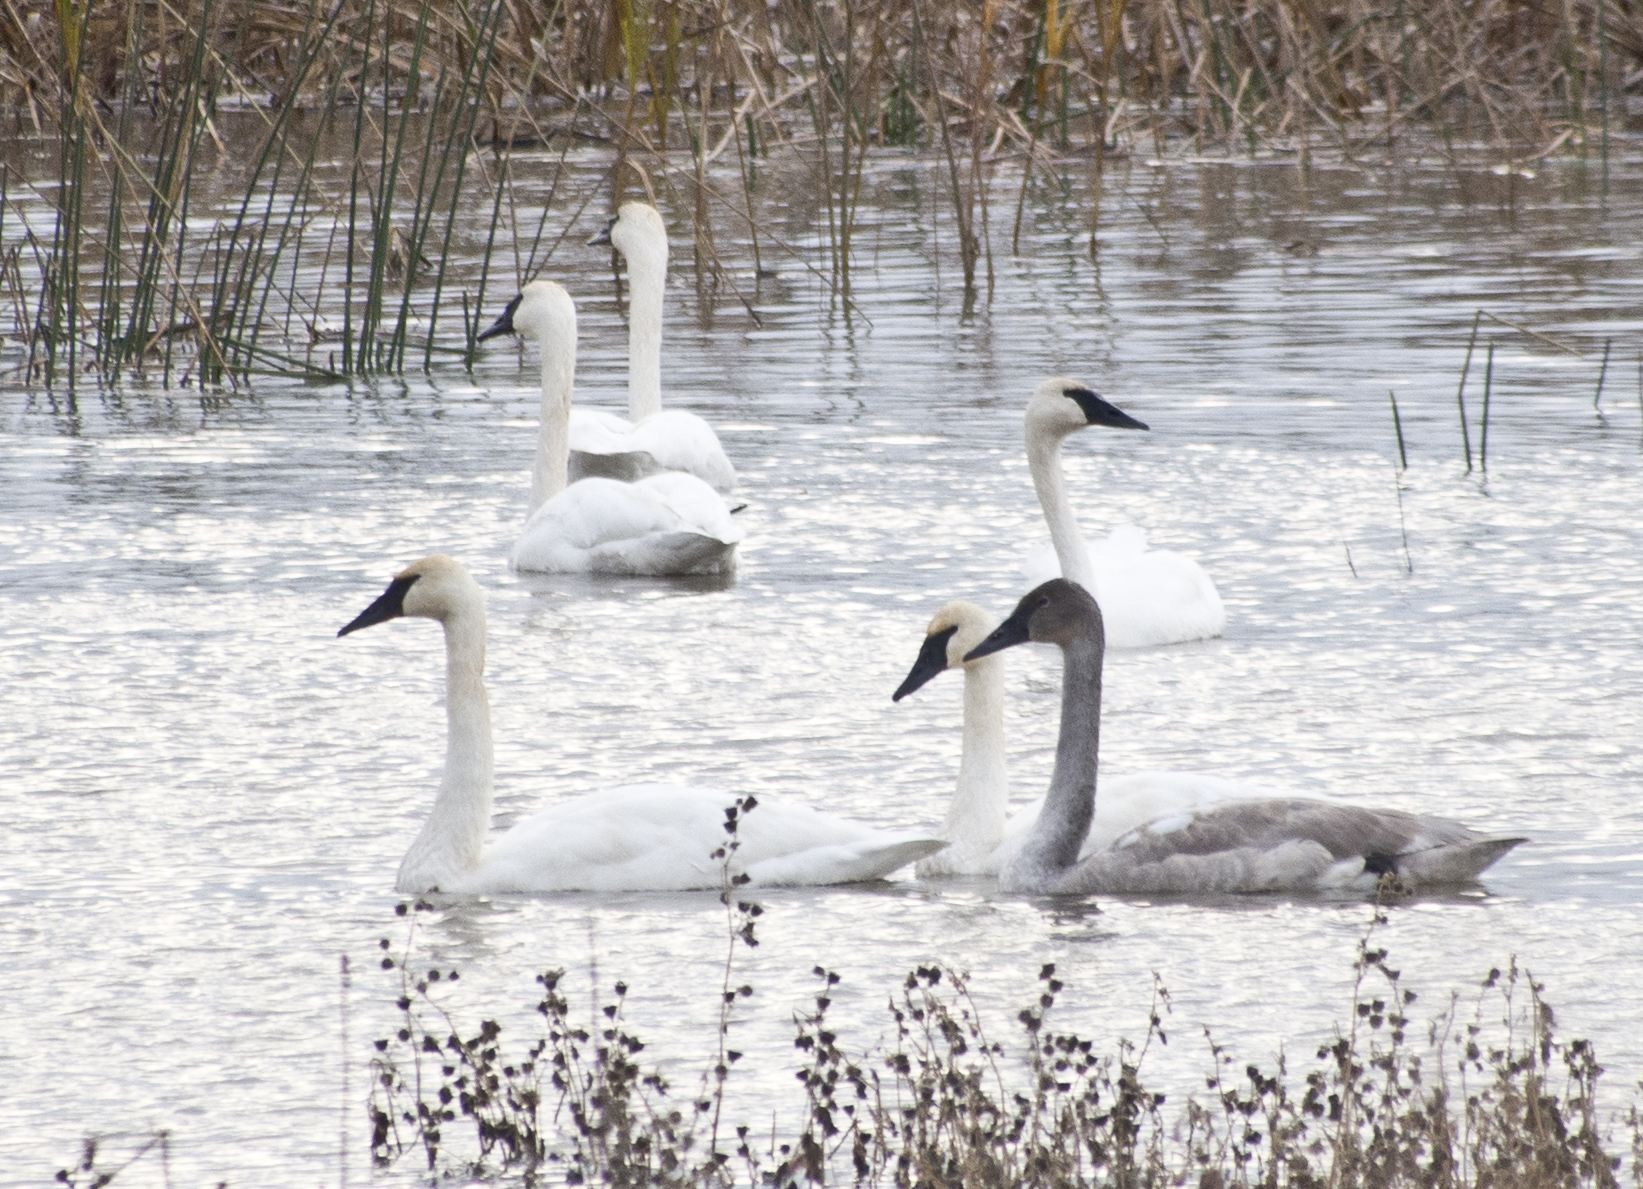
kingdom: Animalia
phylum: Chordata
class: Aves
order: Anseriformes
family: Anatidae
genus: Cygnus
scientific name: Cygnus buccinator
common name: Trumpeter swan
